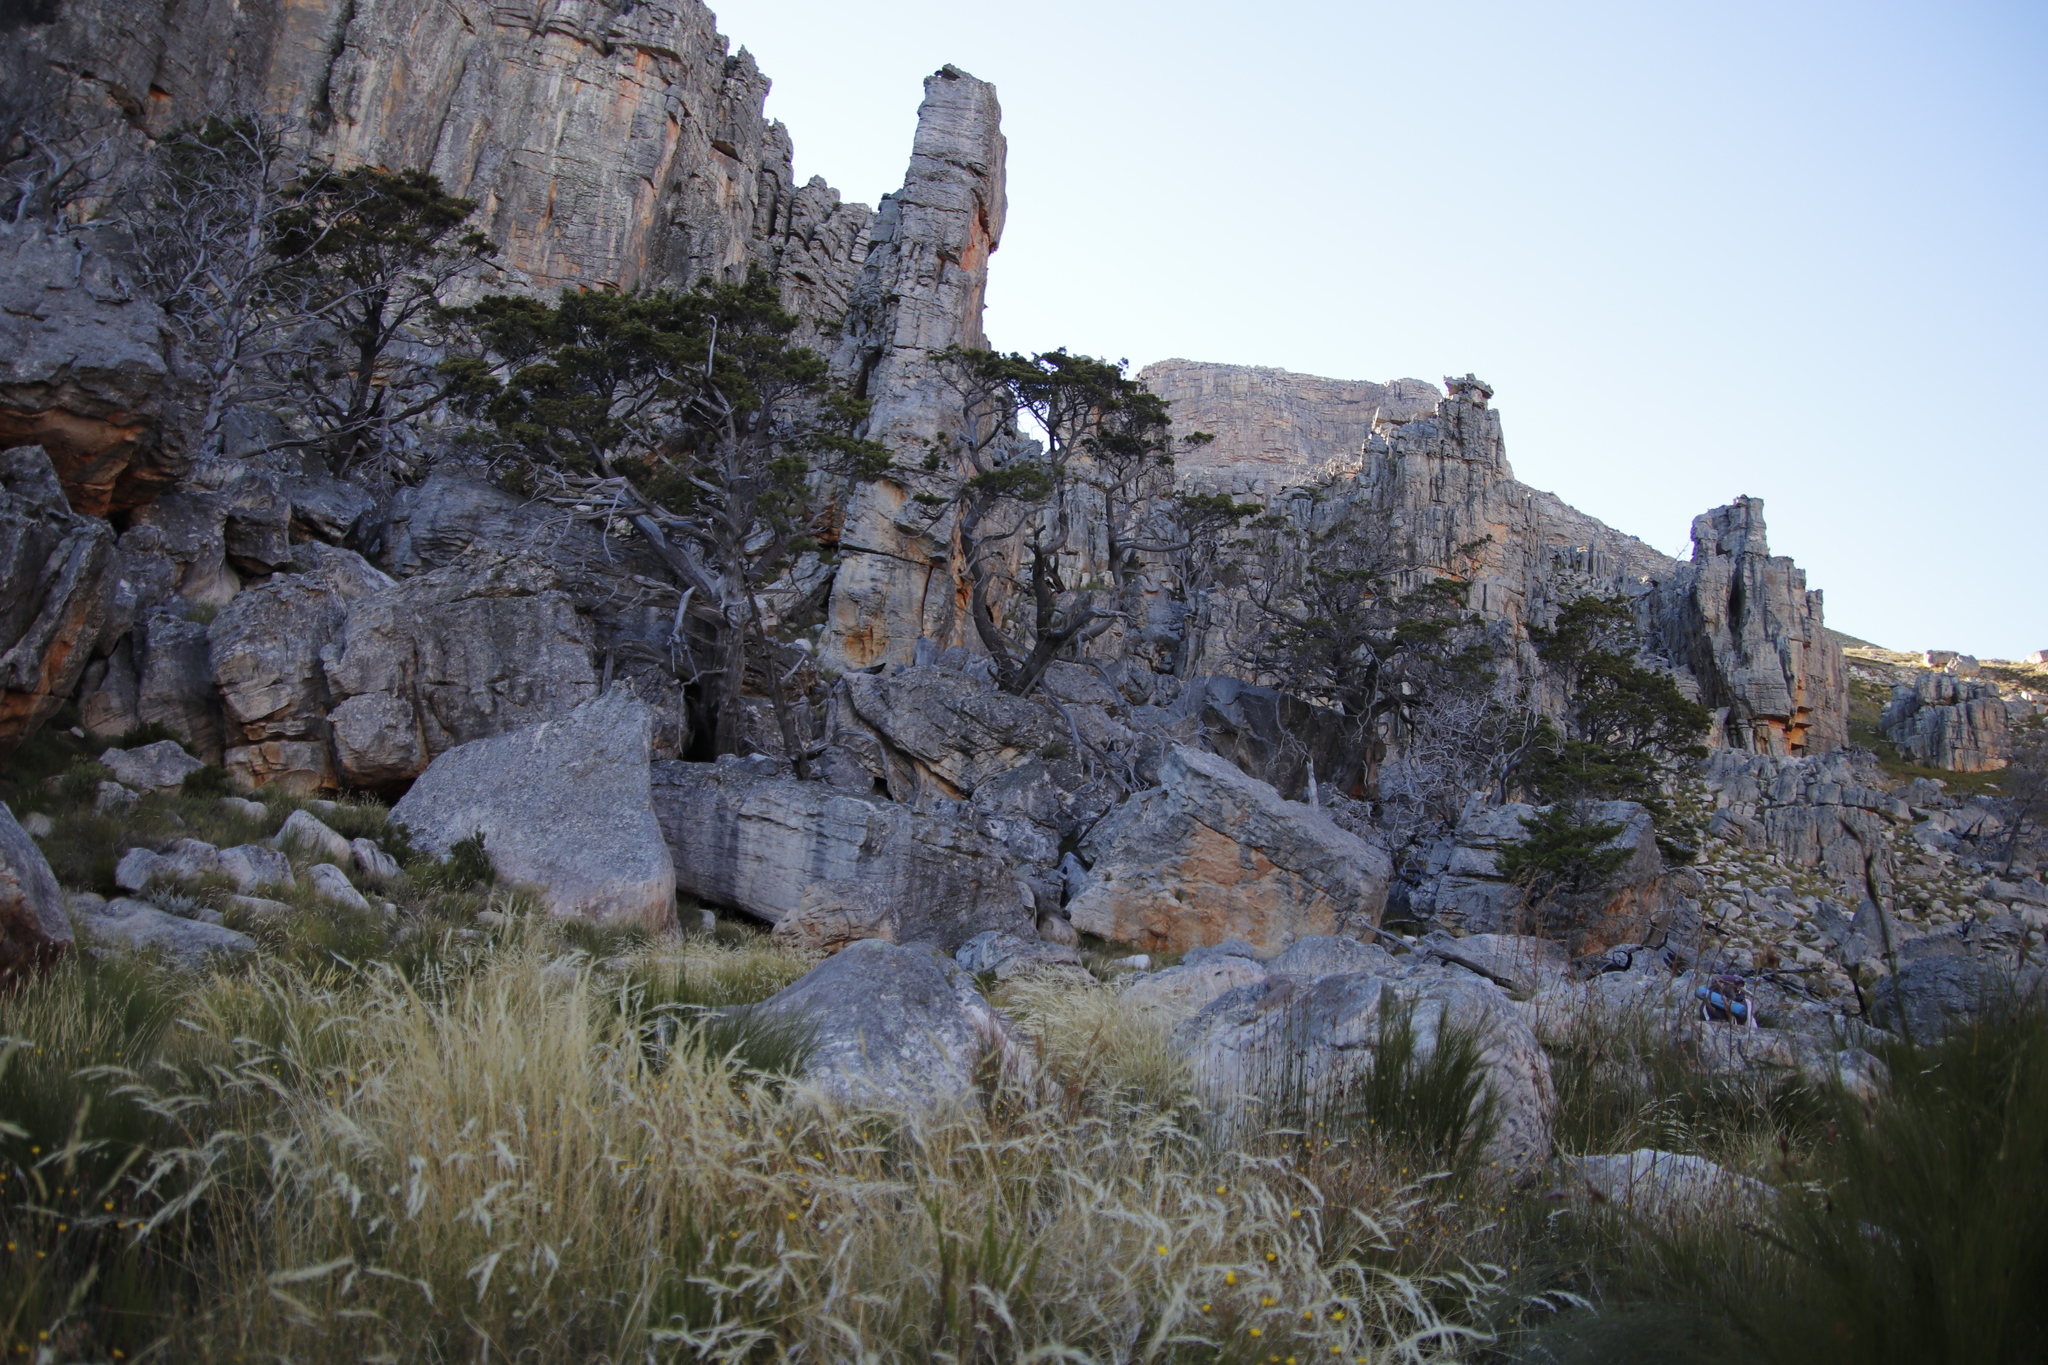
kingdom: Plantae
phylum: Tracheophyta
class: Pinopsida
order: Pinales
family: Cupressaceae
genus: Widdringtonia
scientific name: Widdringtonia nodiflora
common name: Cape cypress
